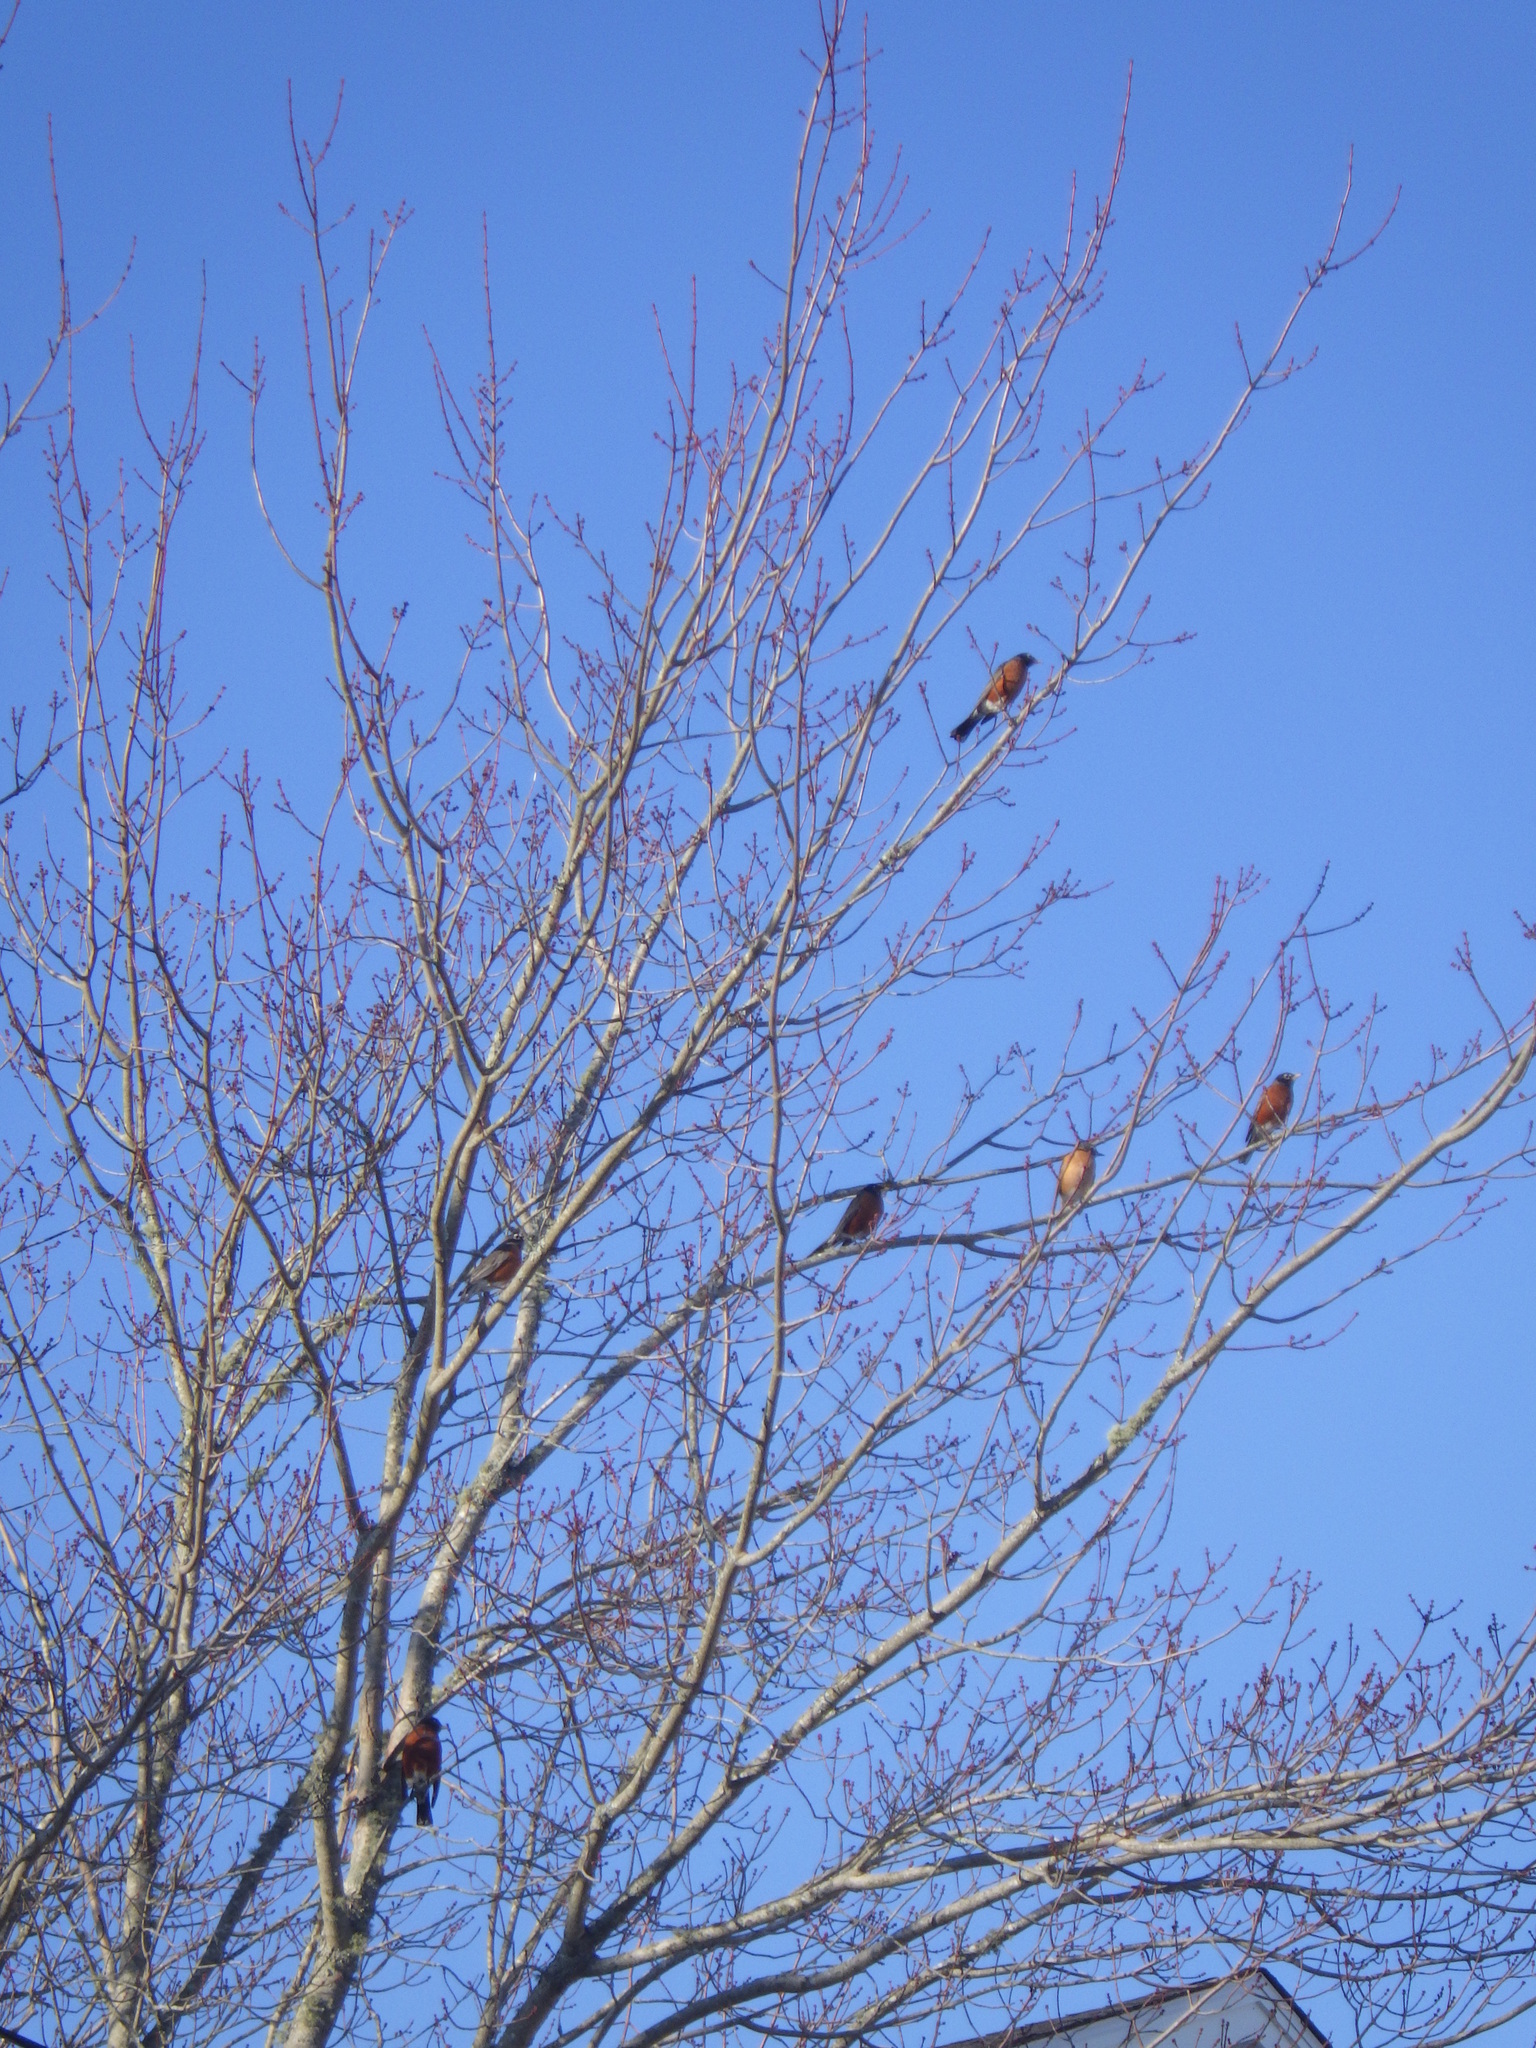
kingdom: Animalia
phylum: Chordata
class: Aves
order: Passeriformes
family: Turdidae
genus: Turdus
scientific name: Turdus migratorius
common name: American robin
